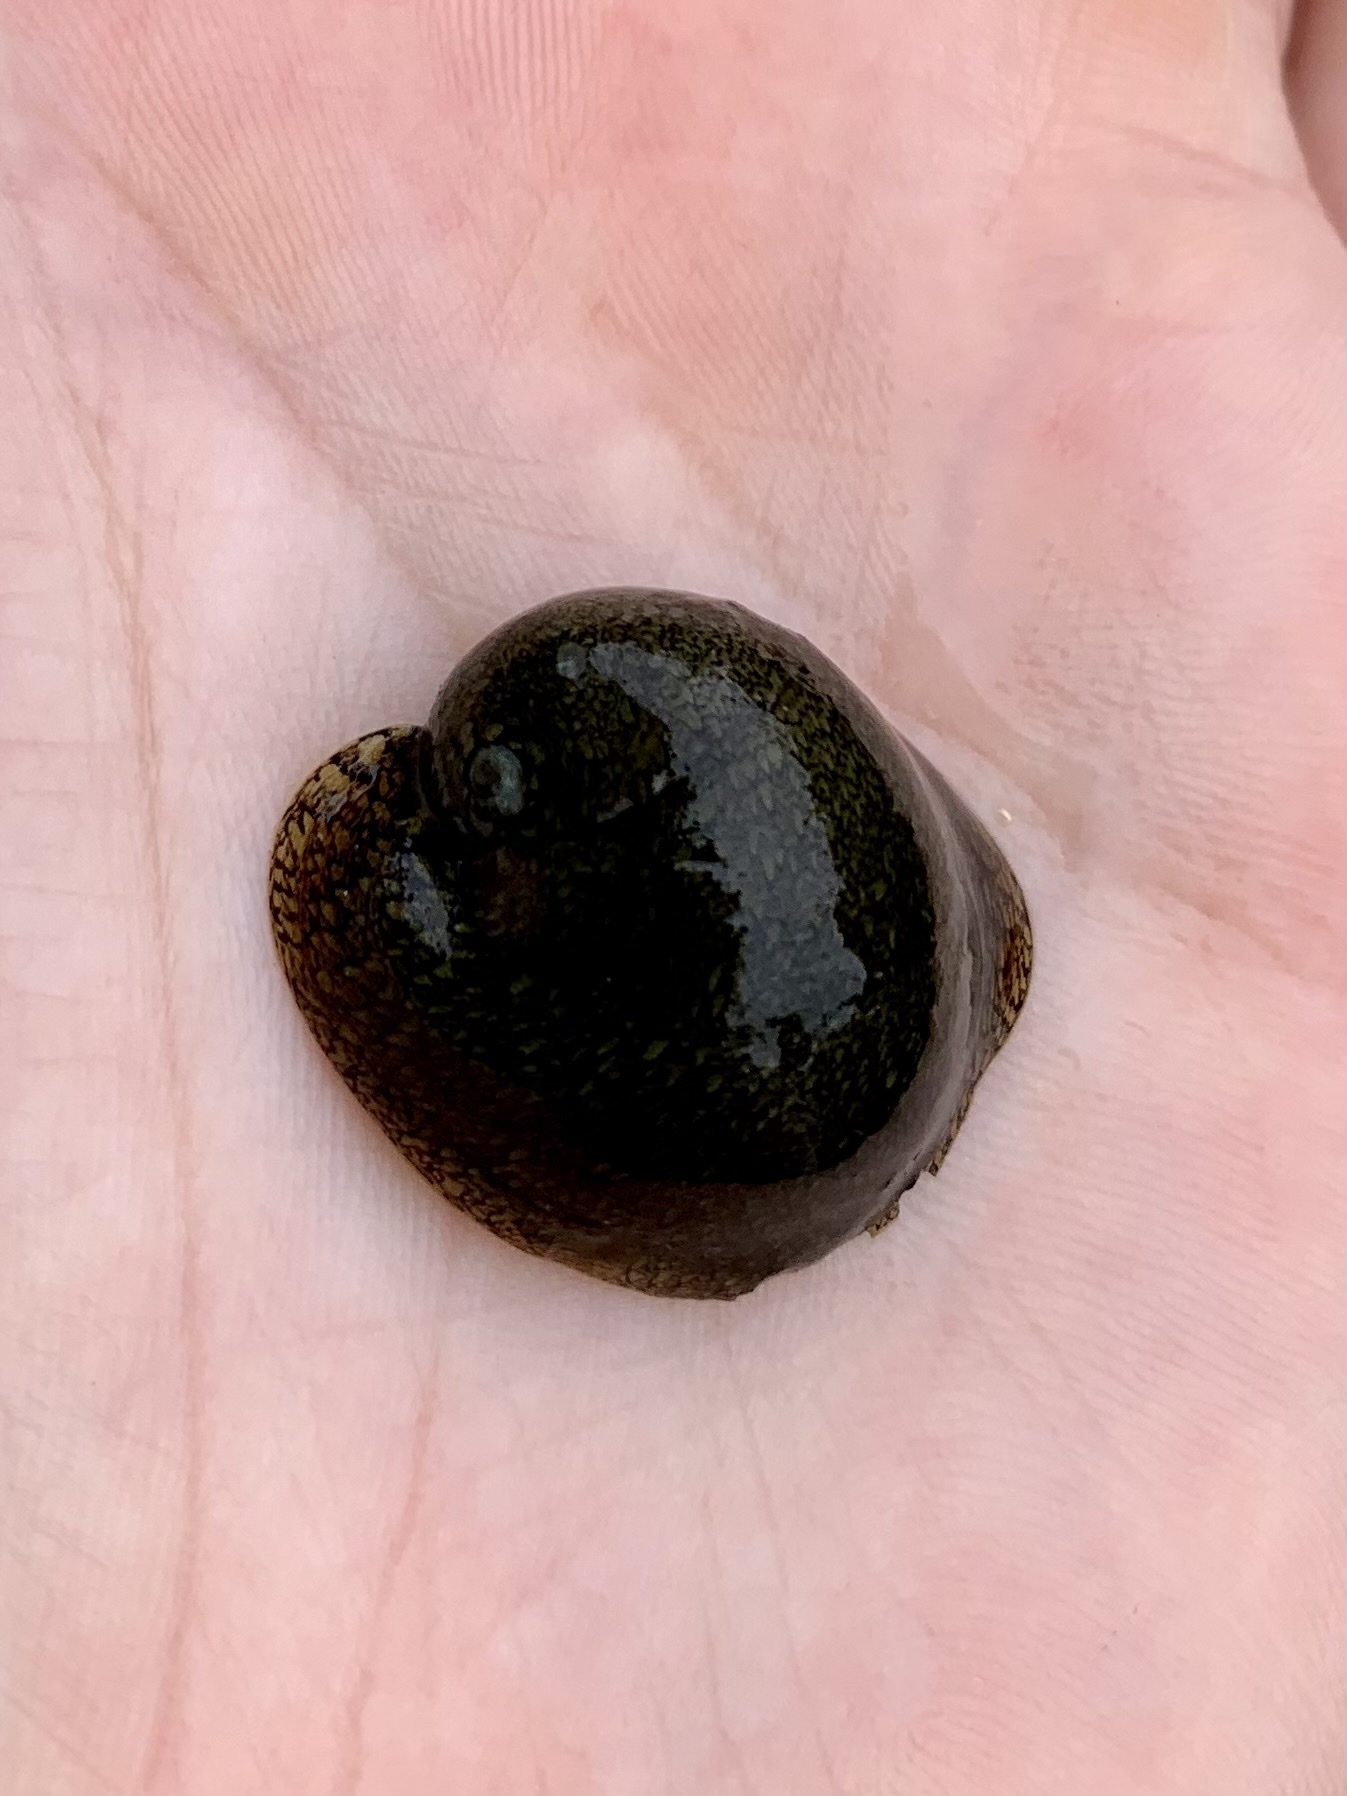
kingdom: Animalia
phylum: Mollusca
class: Gastropoda
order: Cycloneritida
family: Neritidae
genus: Clypeolum
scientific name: Clypeolum latissimum
